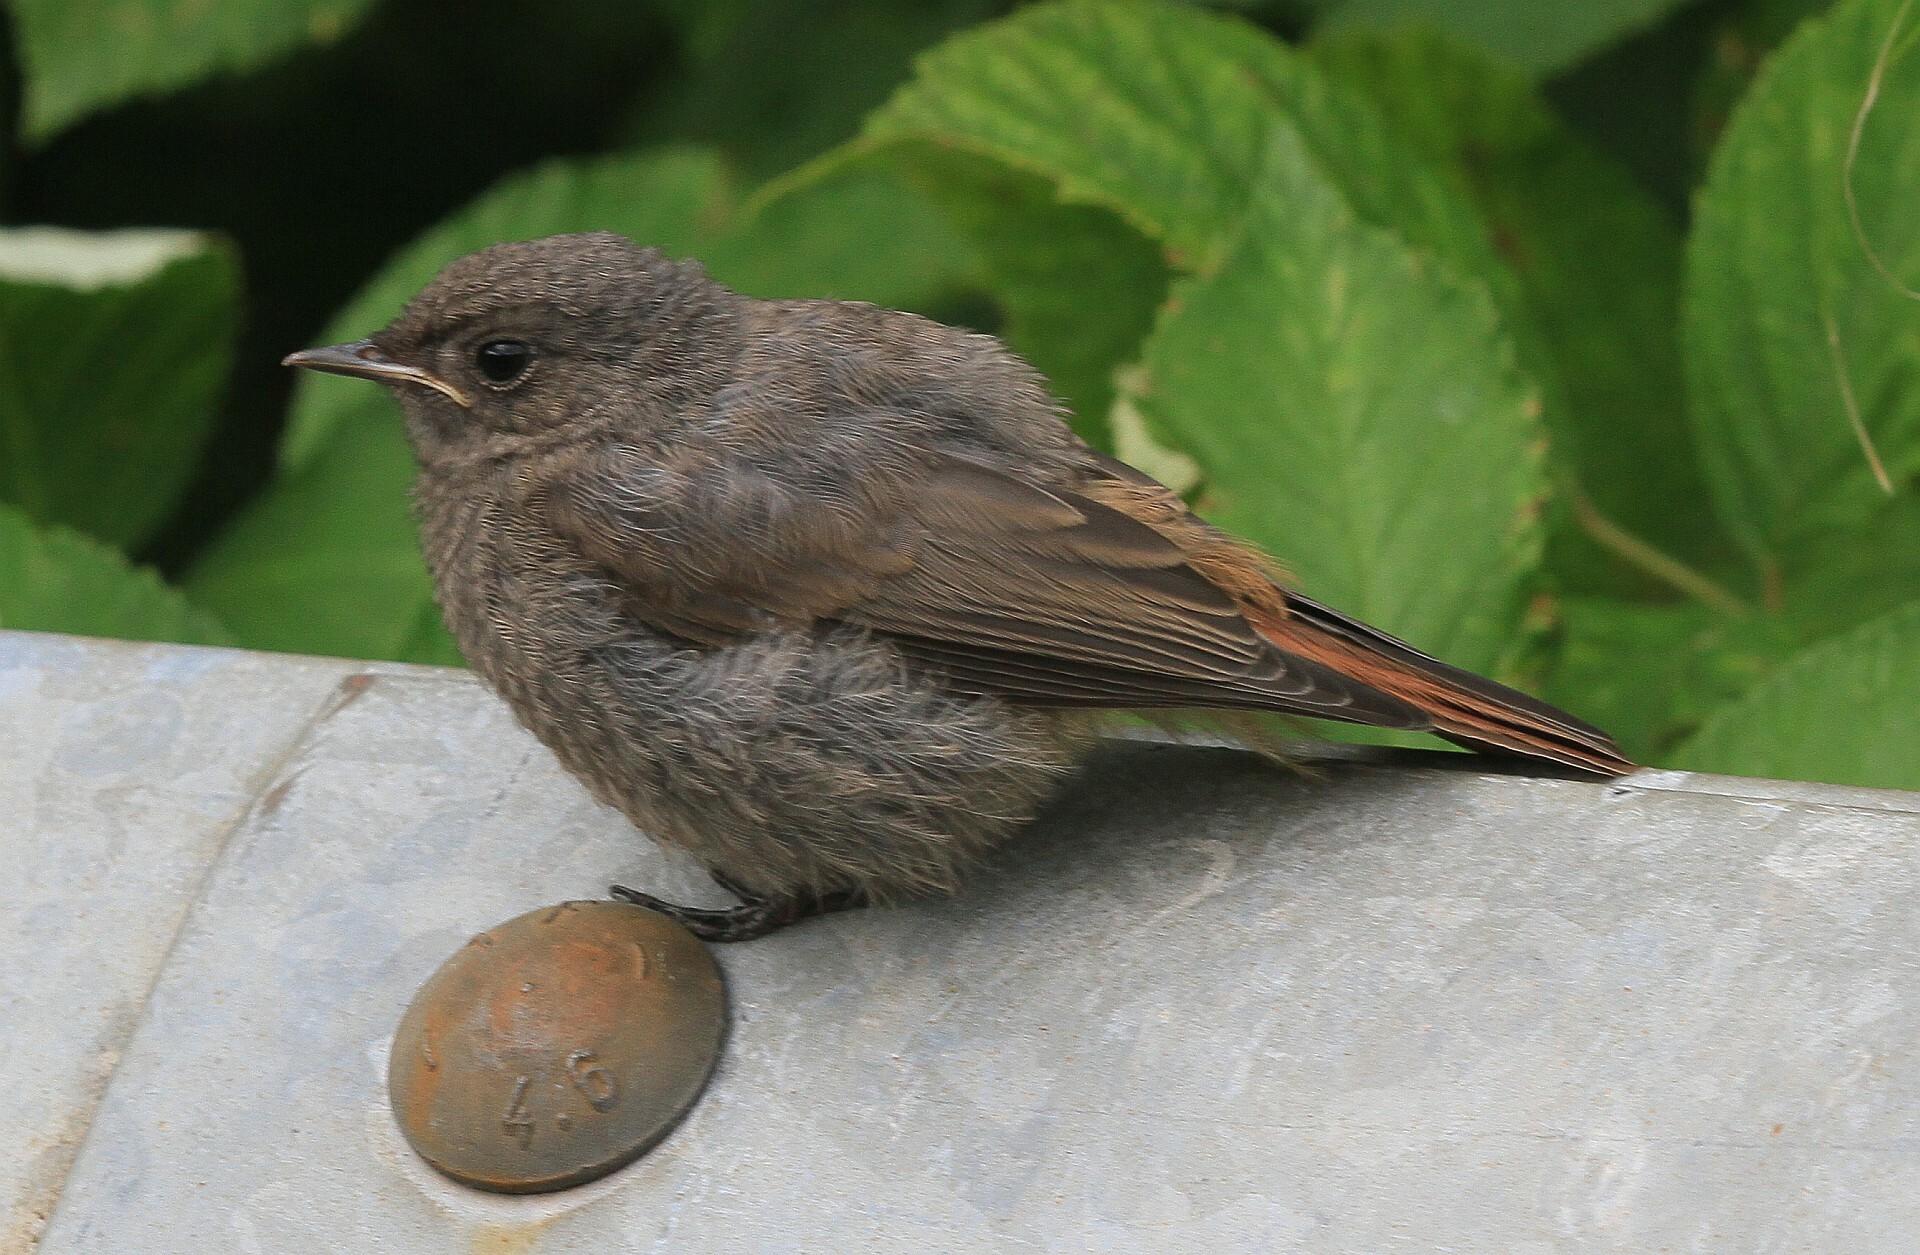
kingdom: Animalia
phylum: Chordata
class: Aves
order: Passeriformes
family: Muscicapidae
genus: Phoenicurus
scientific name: Phoenicurus ochruros
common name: Black redstart
